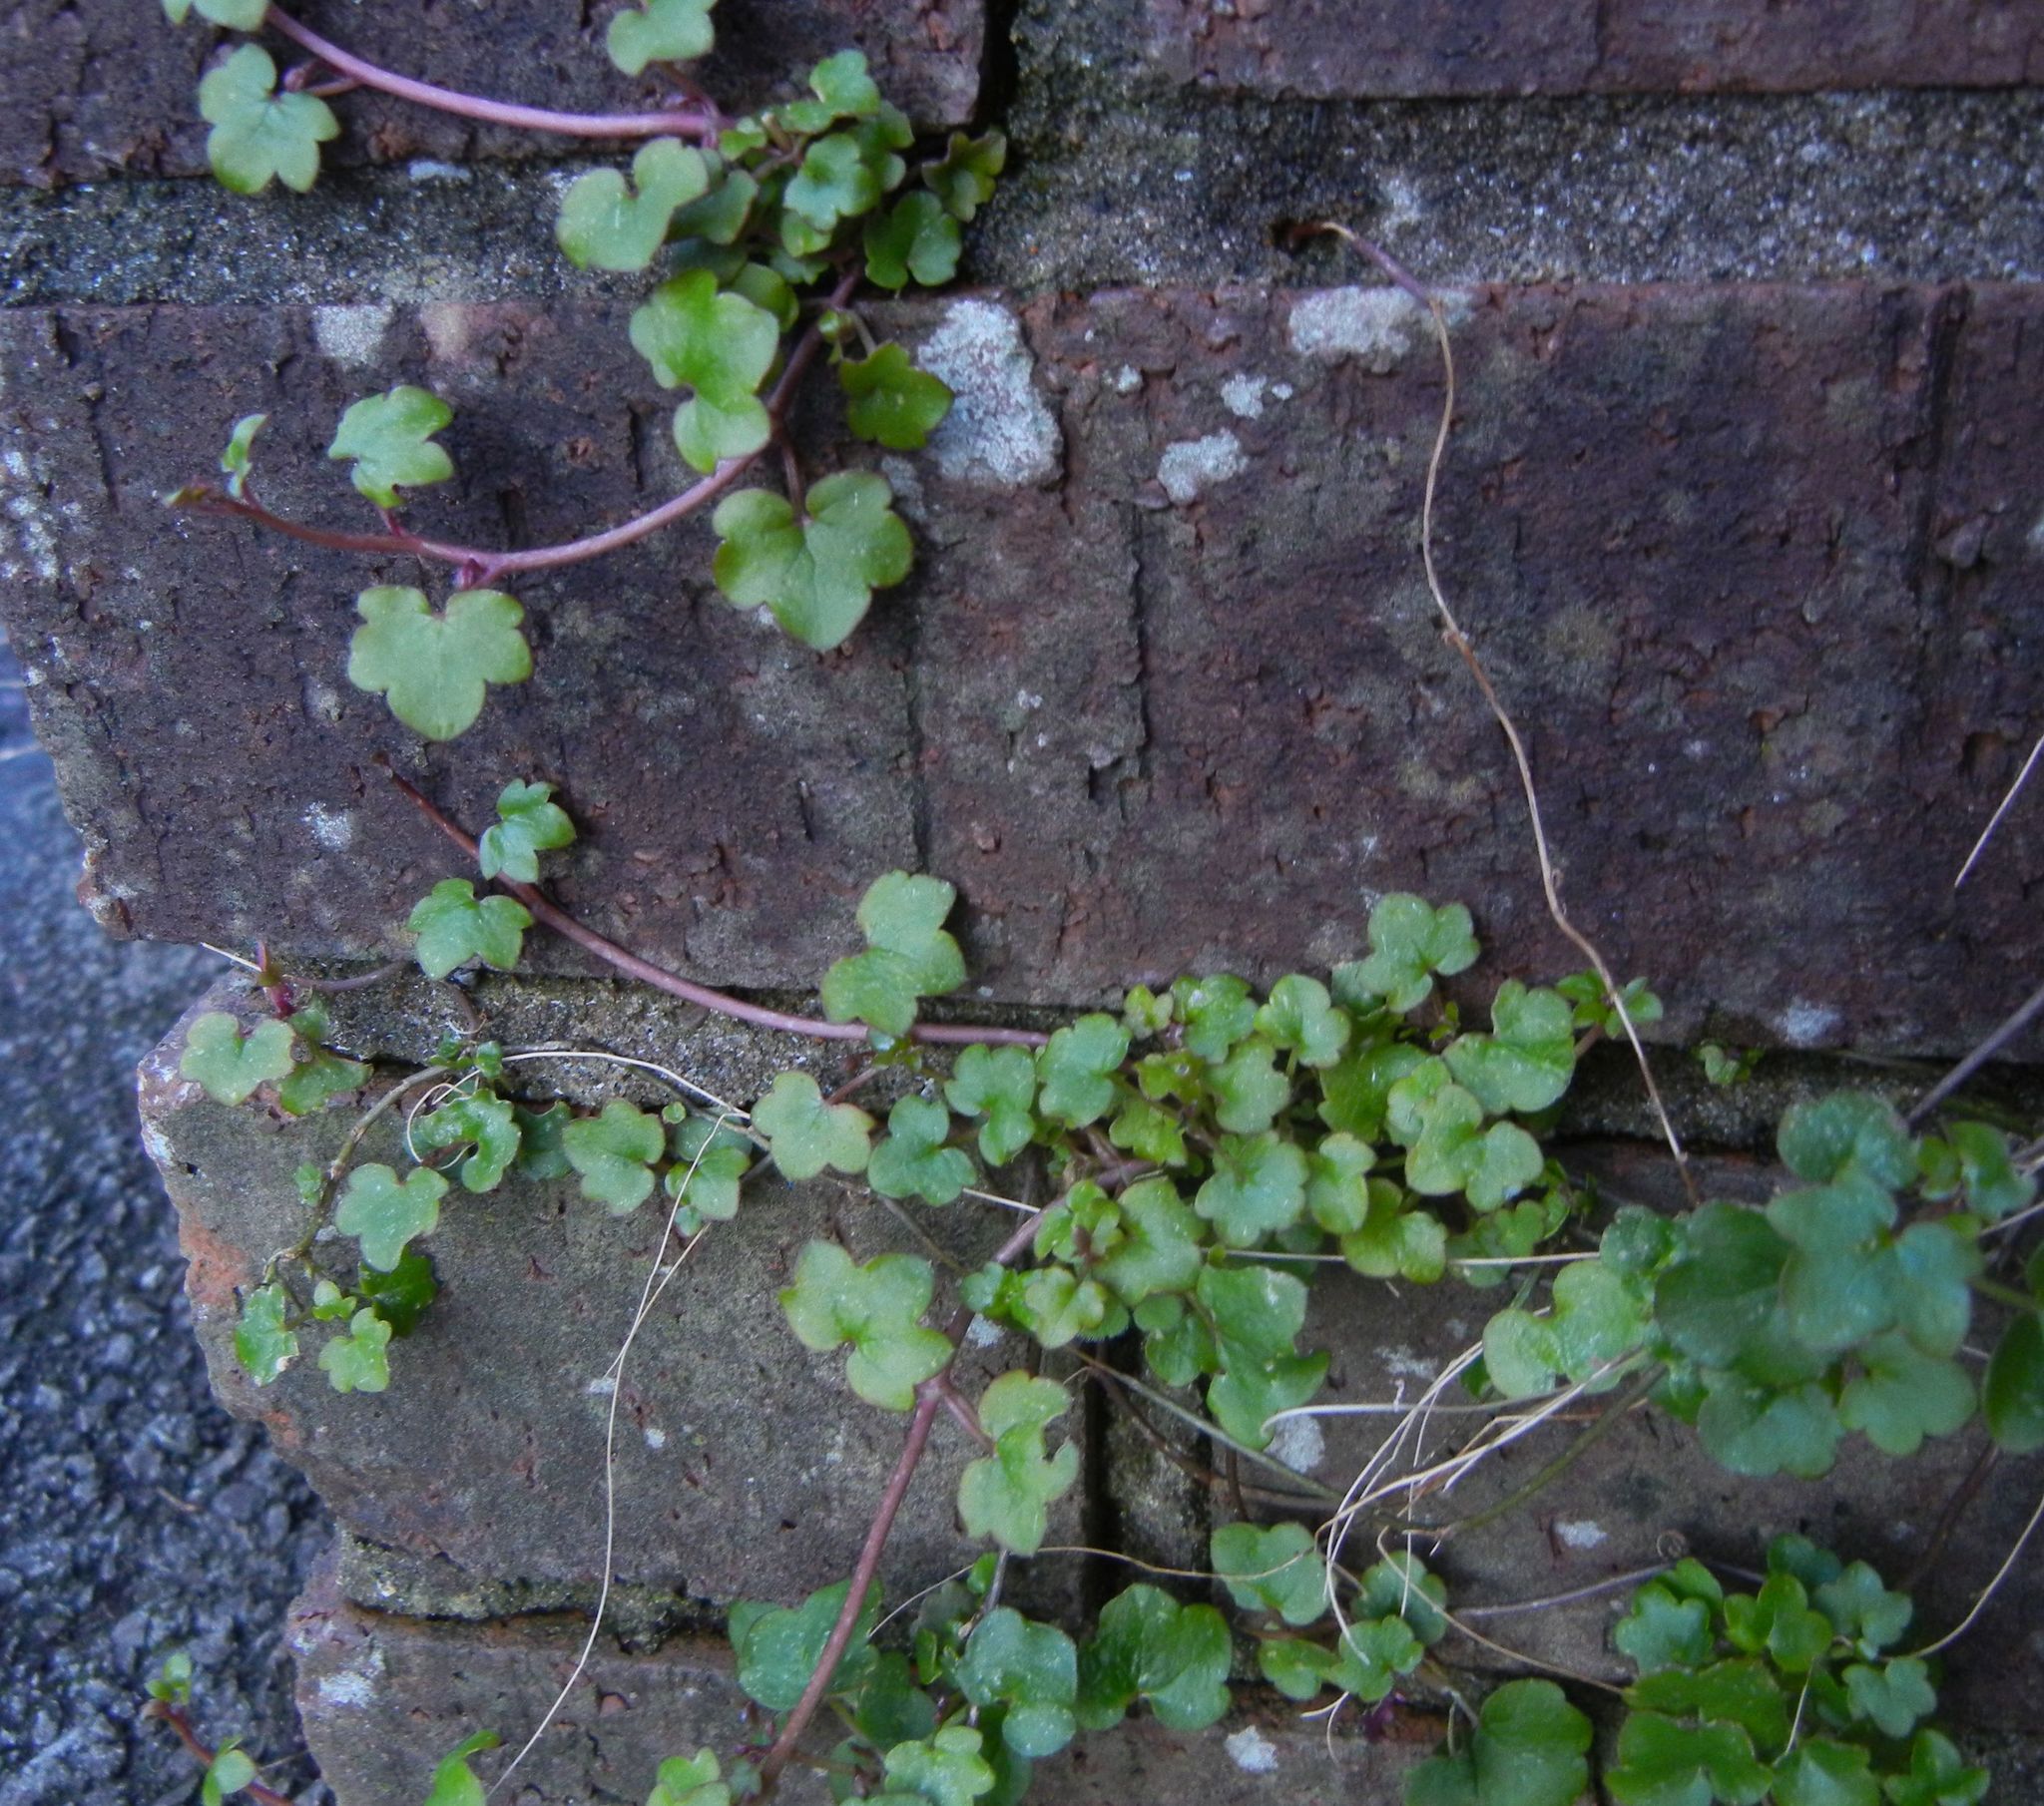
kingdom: Plantae
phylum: Tracheophyta
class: Magnoliopsida
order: Lamiales
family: Plantaginaceae
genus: Cymbalaria
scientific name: Cymbalaria muralis
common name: Ivy-leaved toadflax
